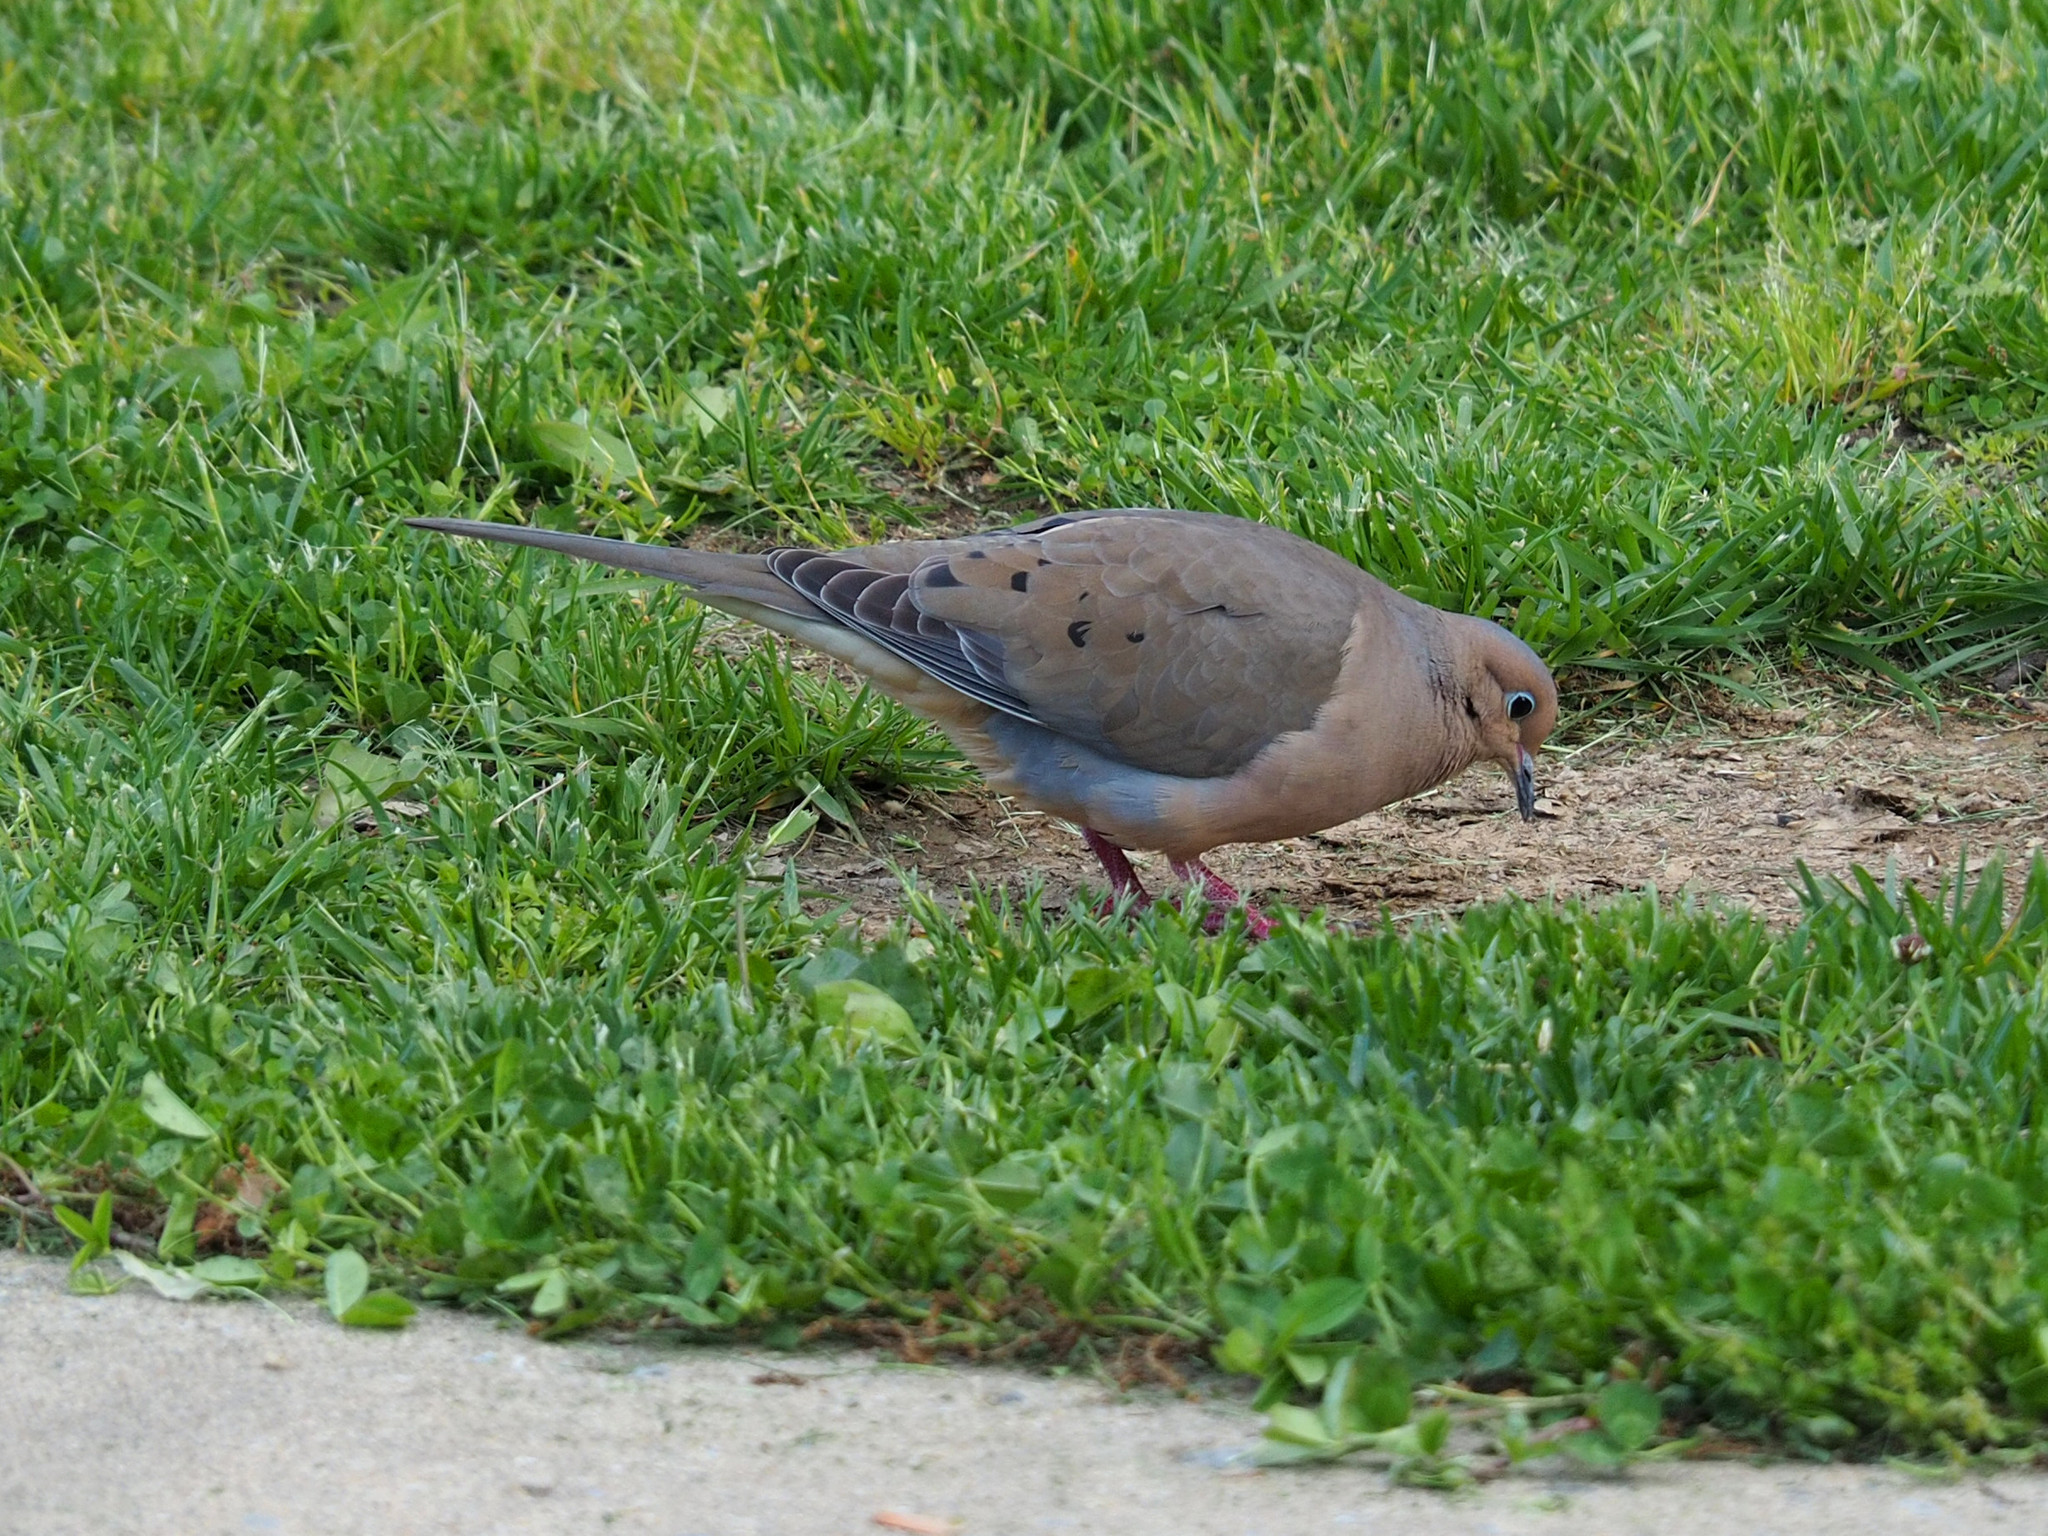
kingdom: Animalia
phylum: Chordata
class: Aves
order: Columbiformes
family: Columbidae
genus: Zenaida
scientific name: Zenaida macroura
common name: Mourning dove
